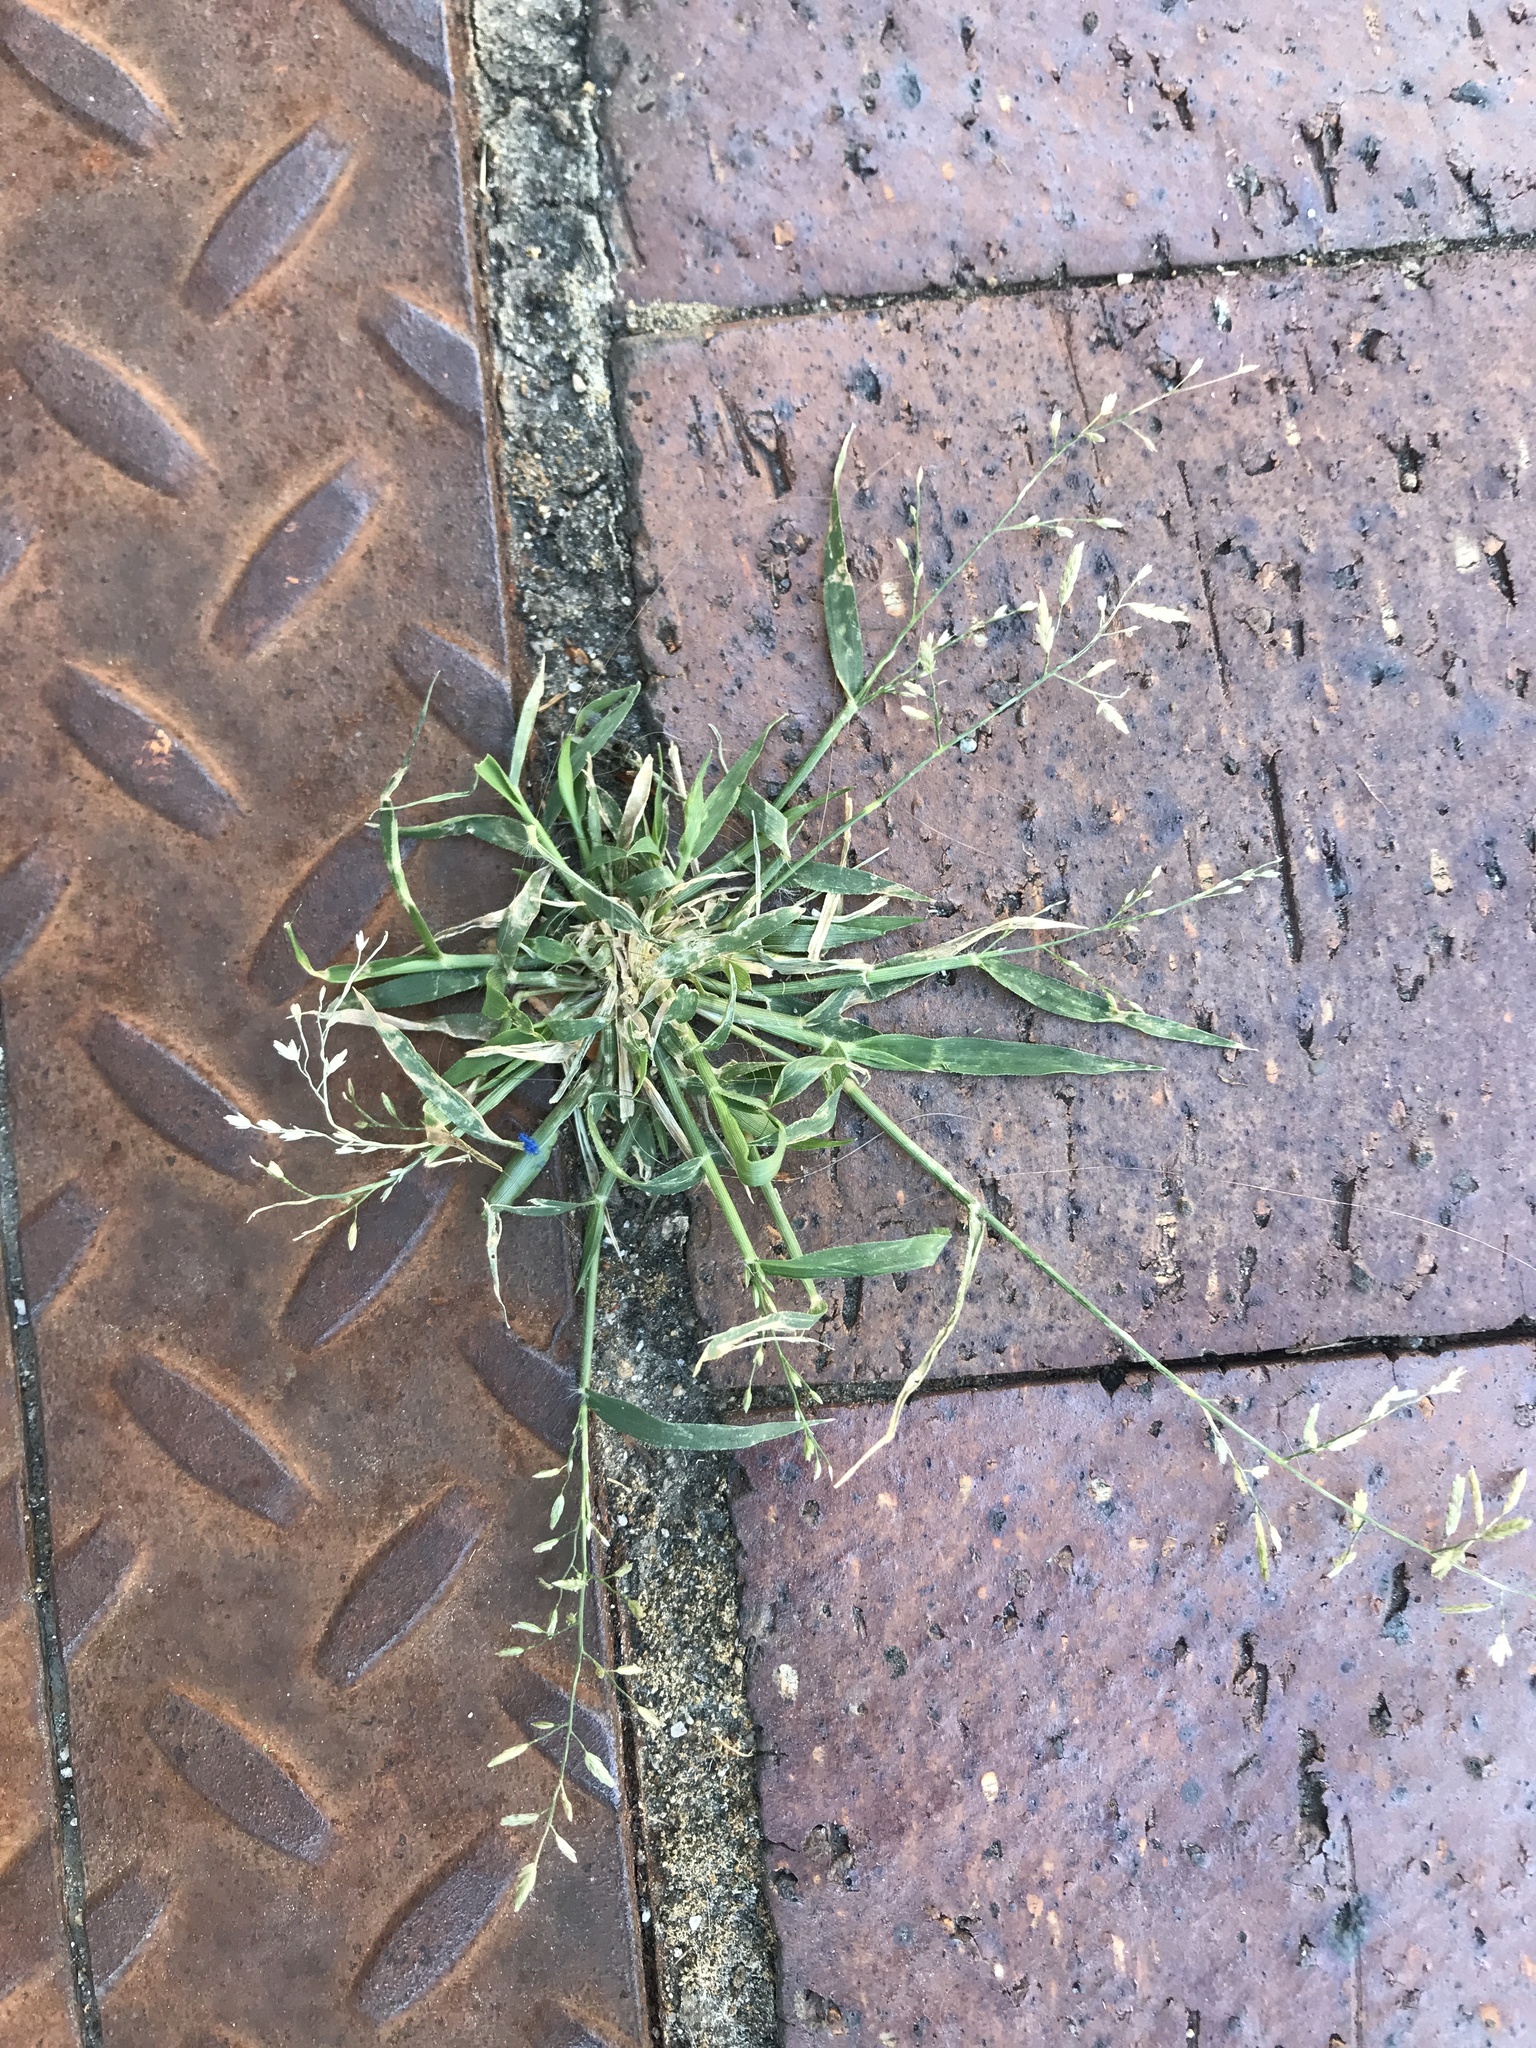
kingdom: Plantae
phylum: Tracheophyta
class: Liliopsida
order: Poales
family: Poaceae
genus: Eragrostis
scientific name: Eragrostis cilianensis
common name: Stinkgrass
